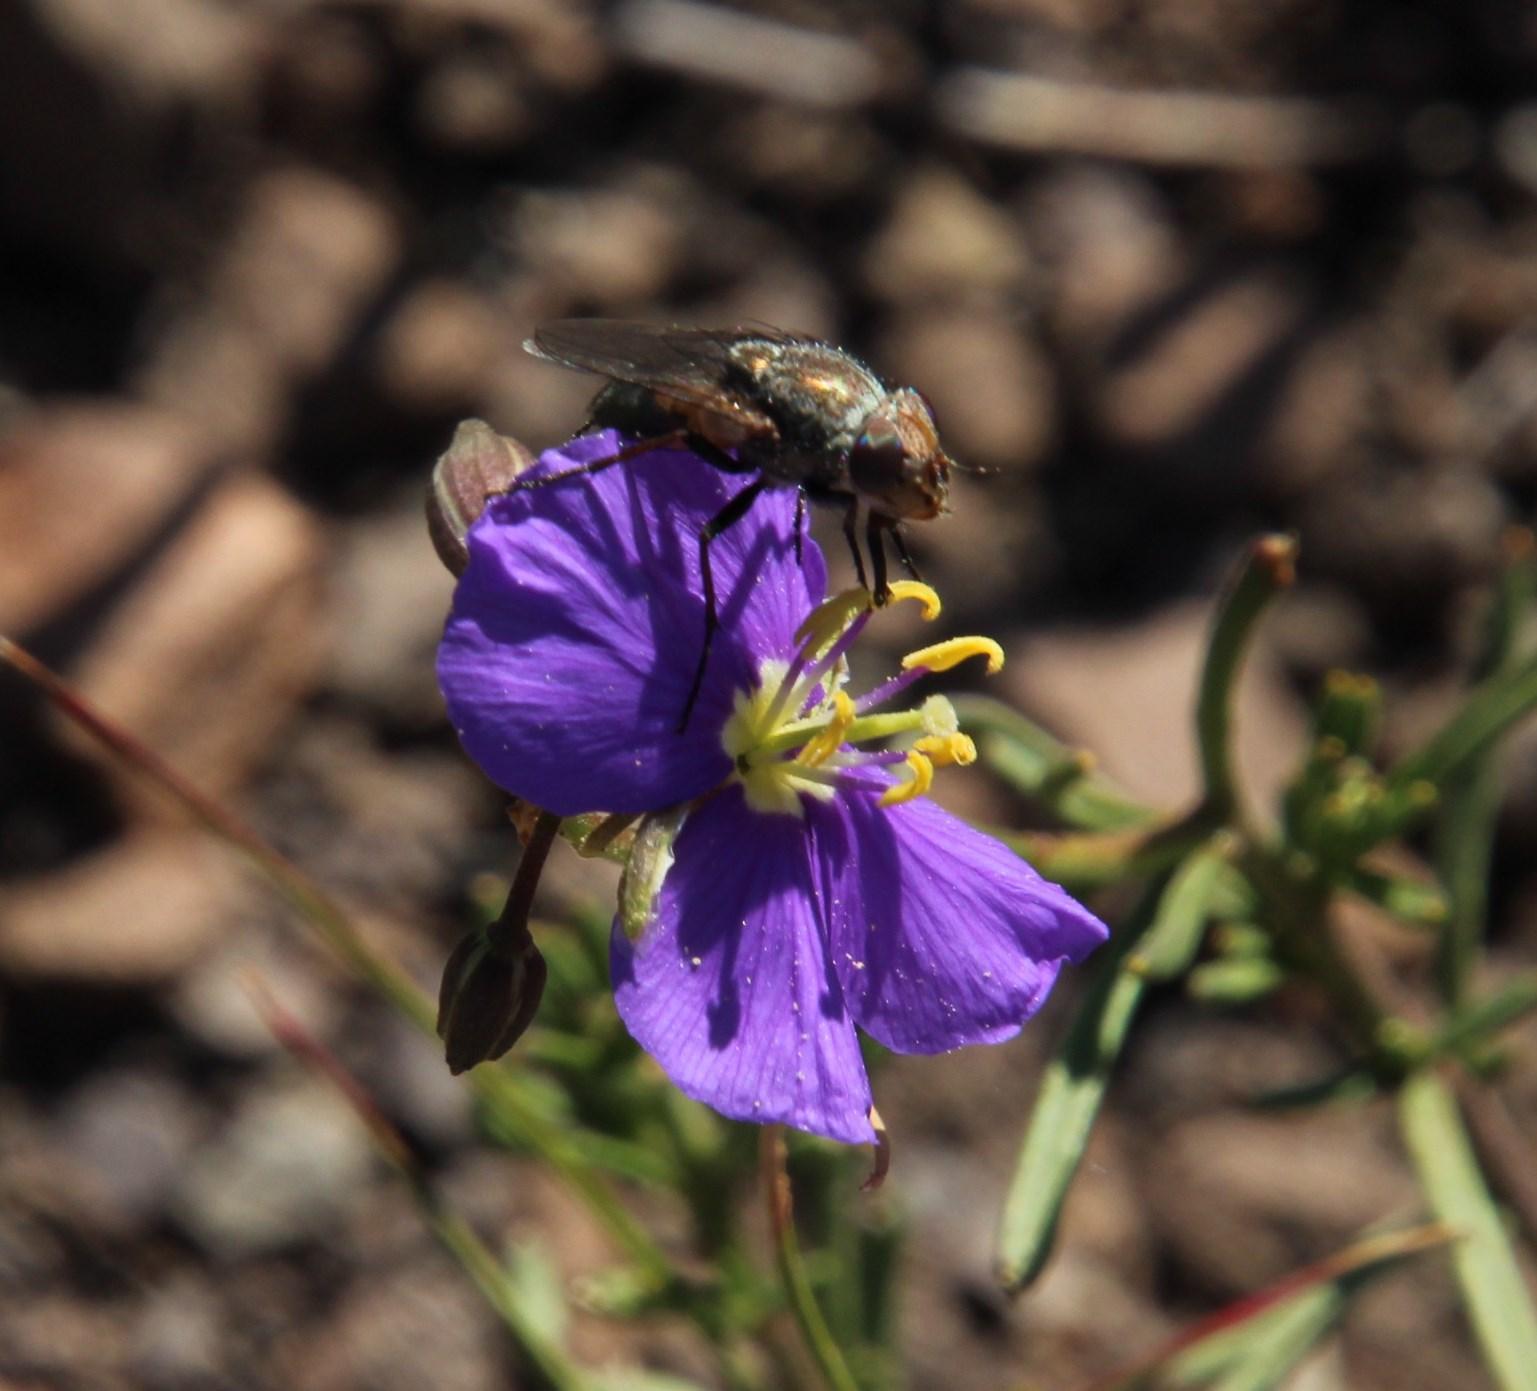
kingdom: Plantae
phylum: Tracheophyta
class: Magnoliopsida
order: Brassicales
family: Brassicaceae
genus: Heliophila
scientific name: Heliophila suavissima
